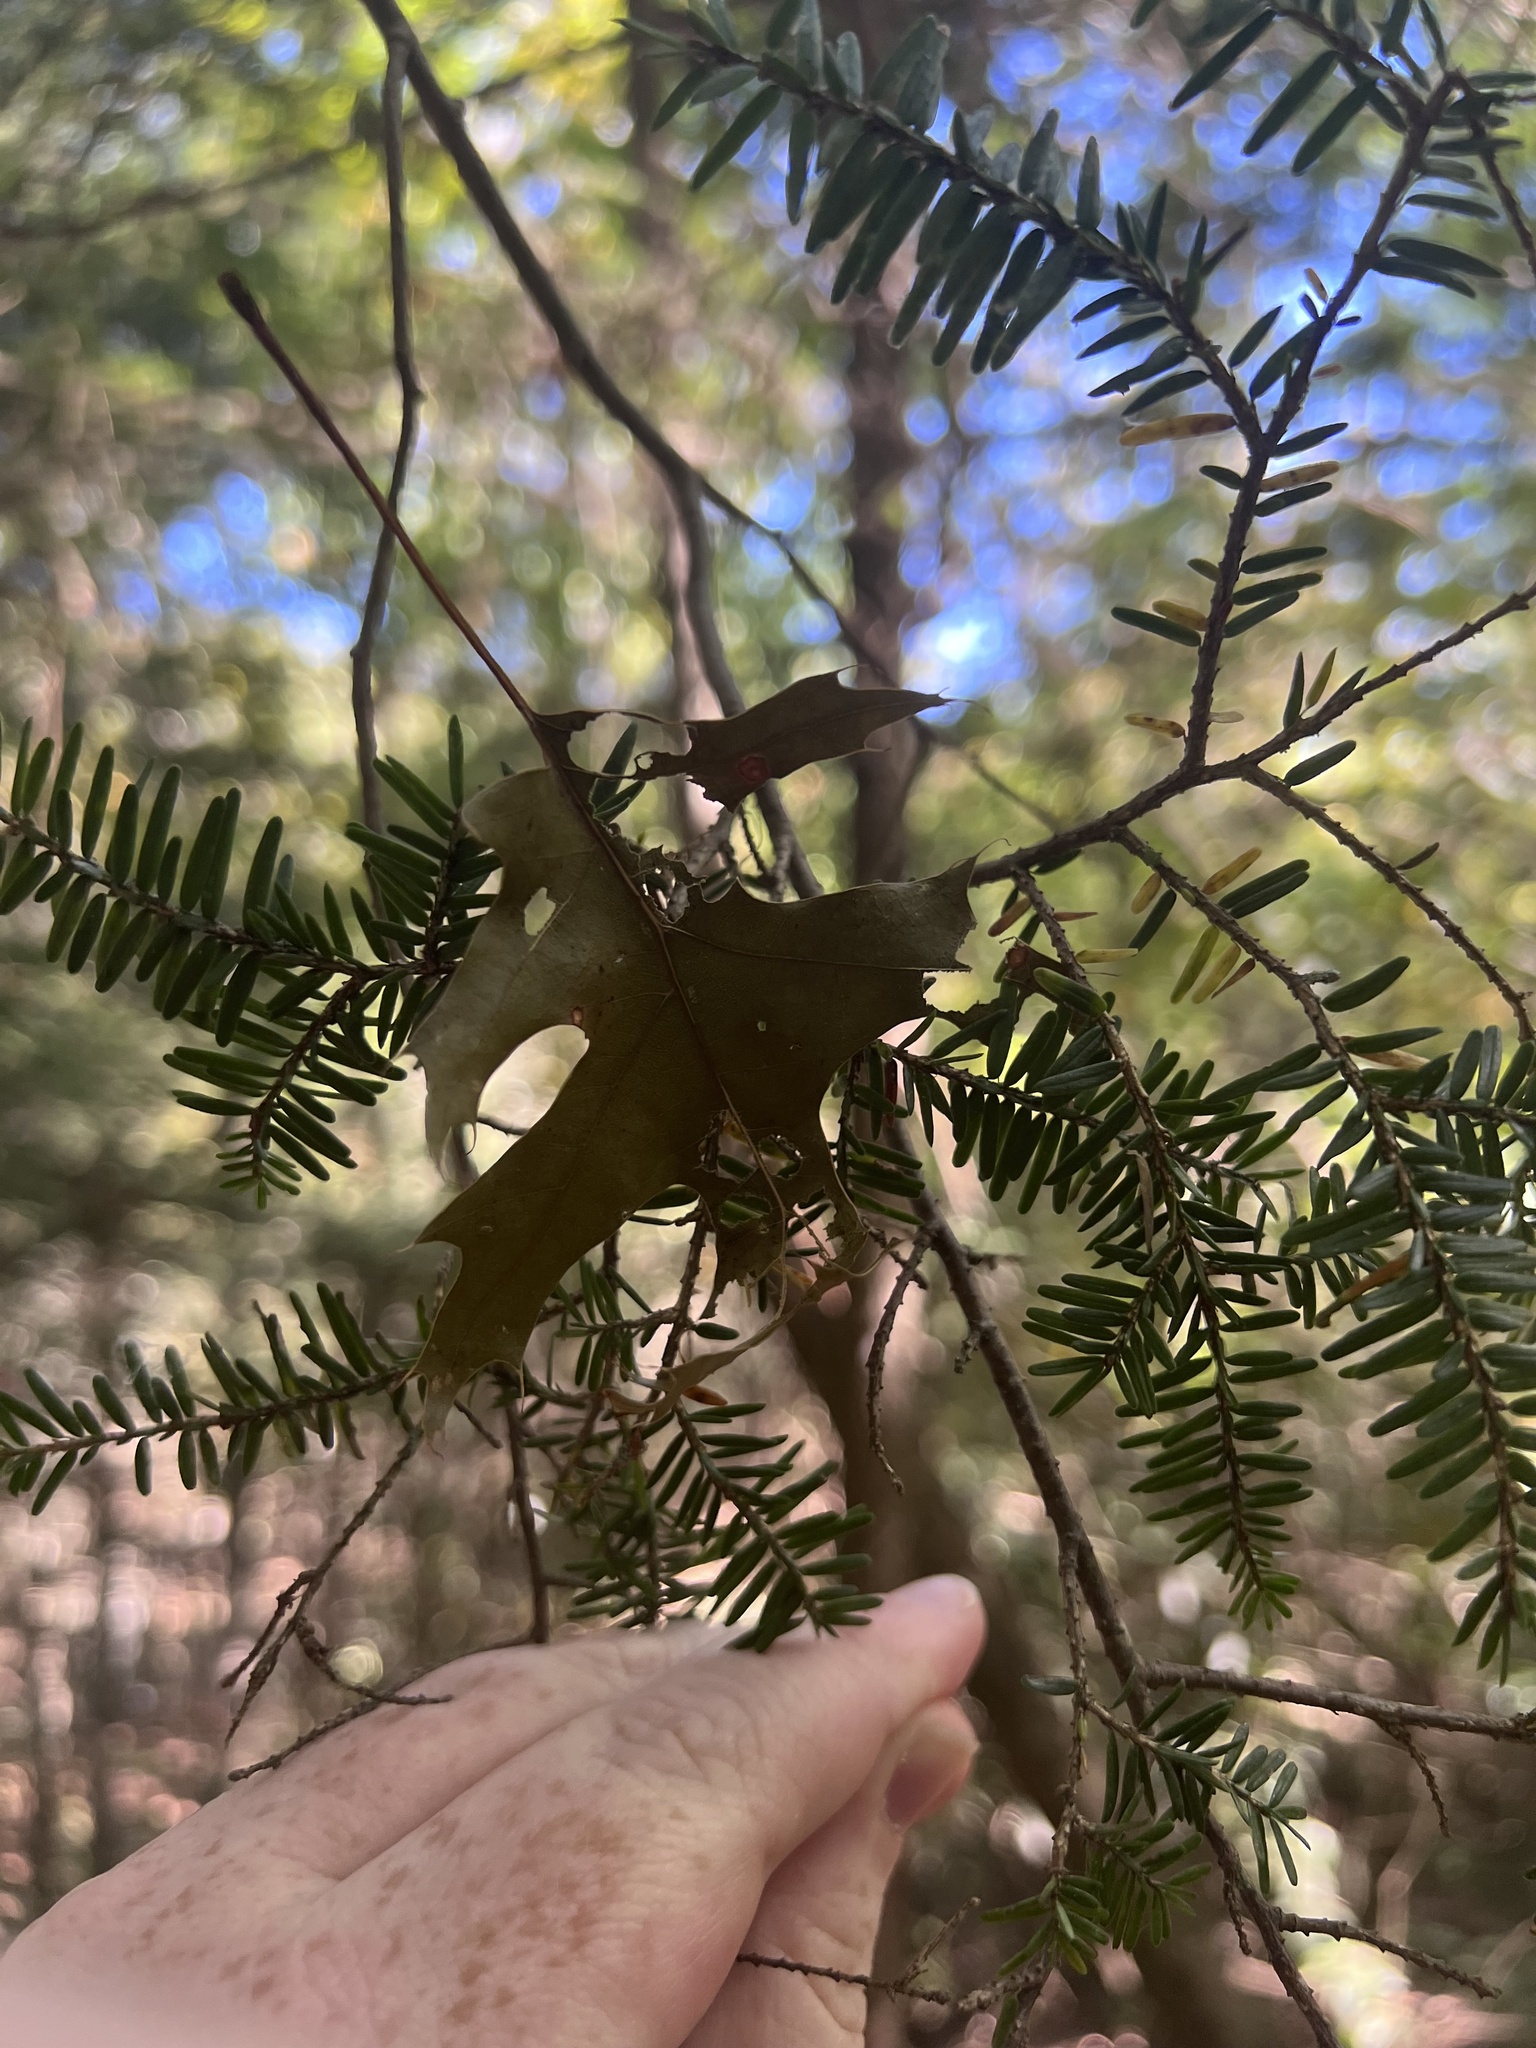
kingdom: Plantae
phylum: Tracheophyta
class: Pinopsida
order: Pinales
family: Pinaceae
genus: Tsuga
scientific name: Tsuga canadensis
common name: Eastern hemlock
